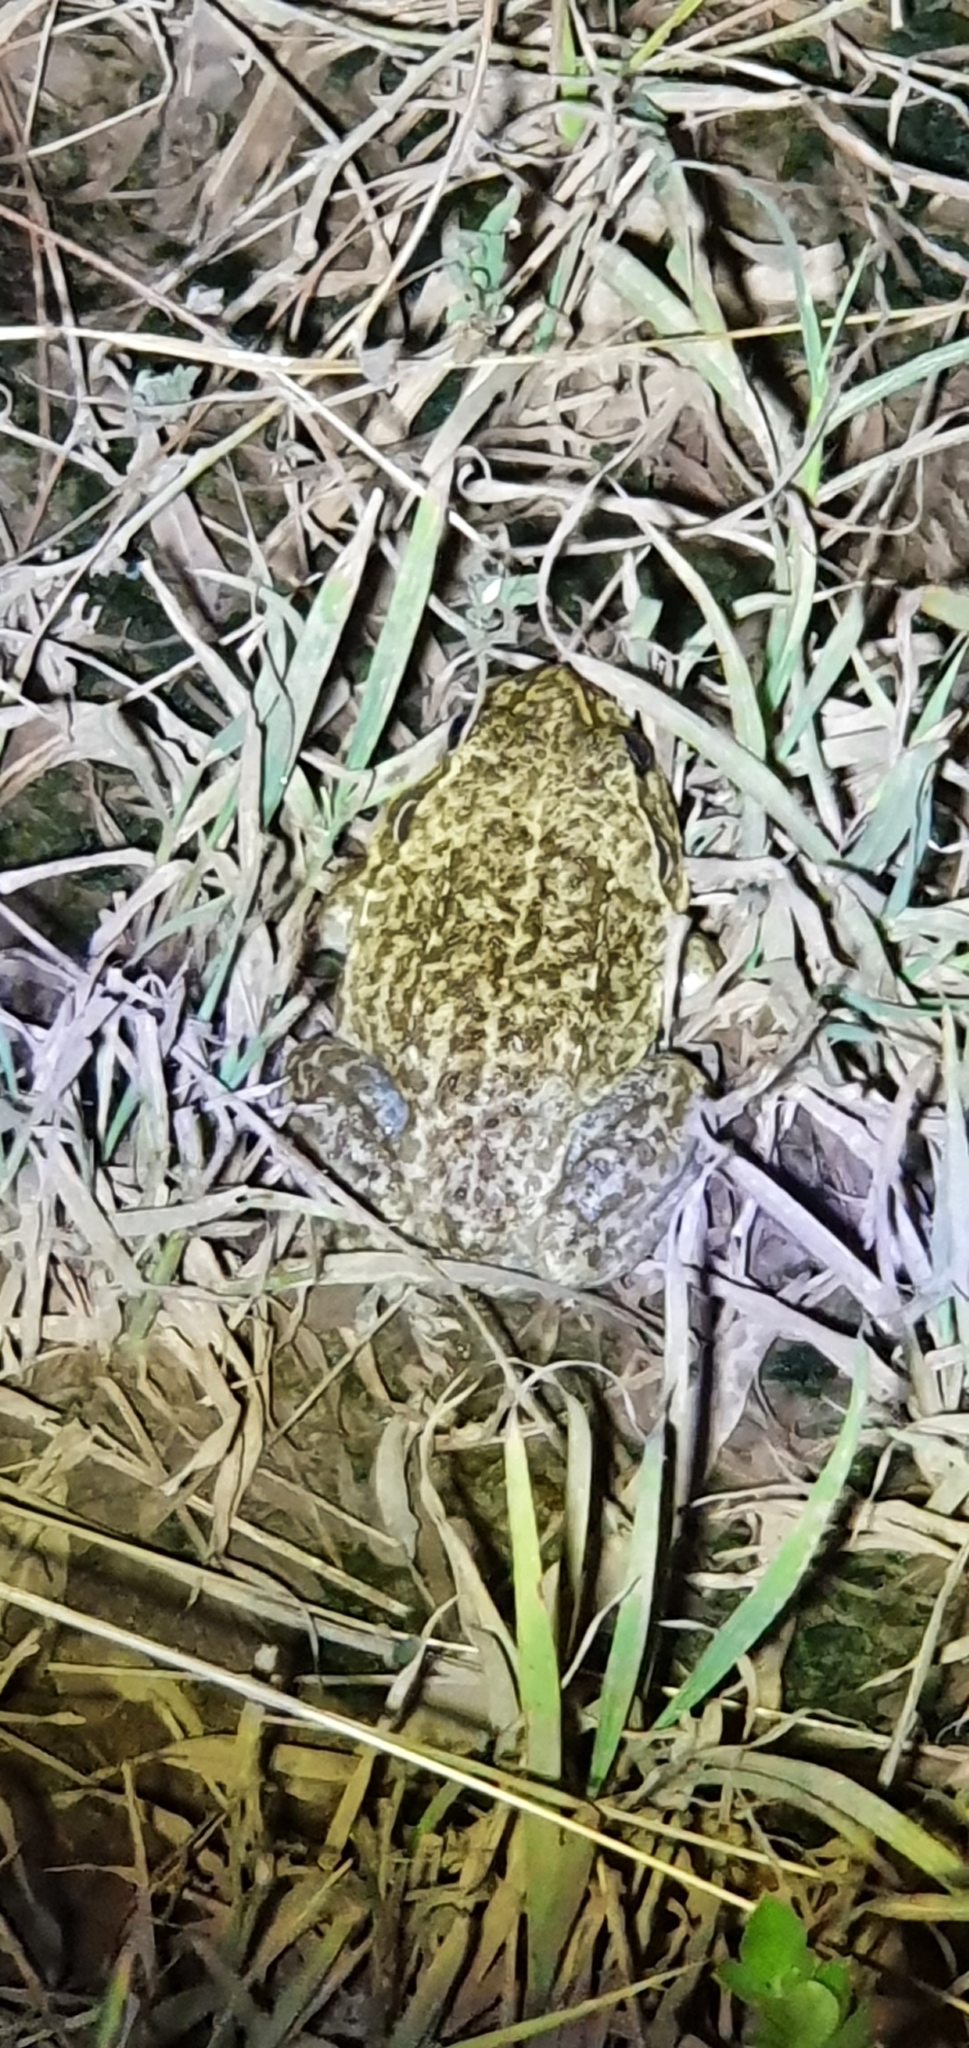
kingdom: Animalia
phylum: Chordata
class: Amphibia
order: Anura
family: Pelodryadidae
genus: Ranoidea
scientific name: Ranoidea novaehollandiae
